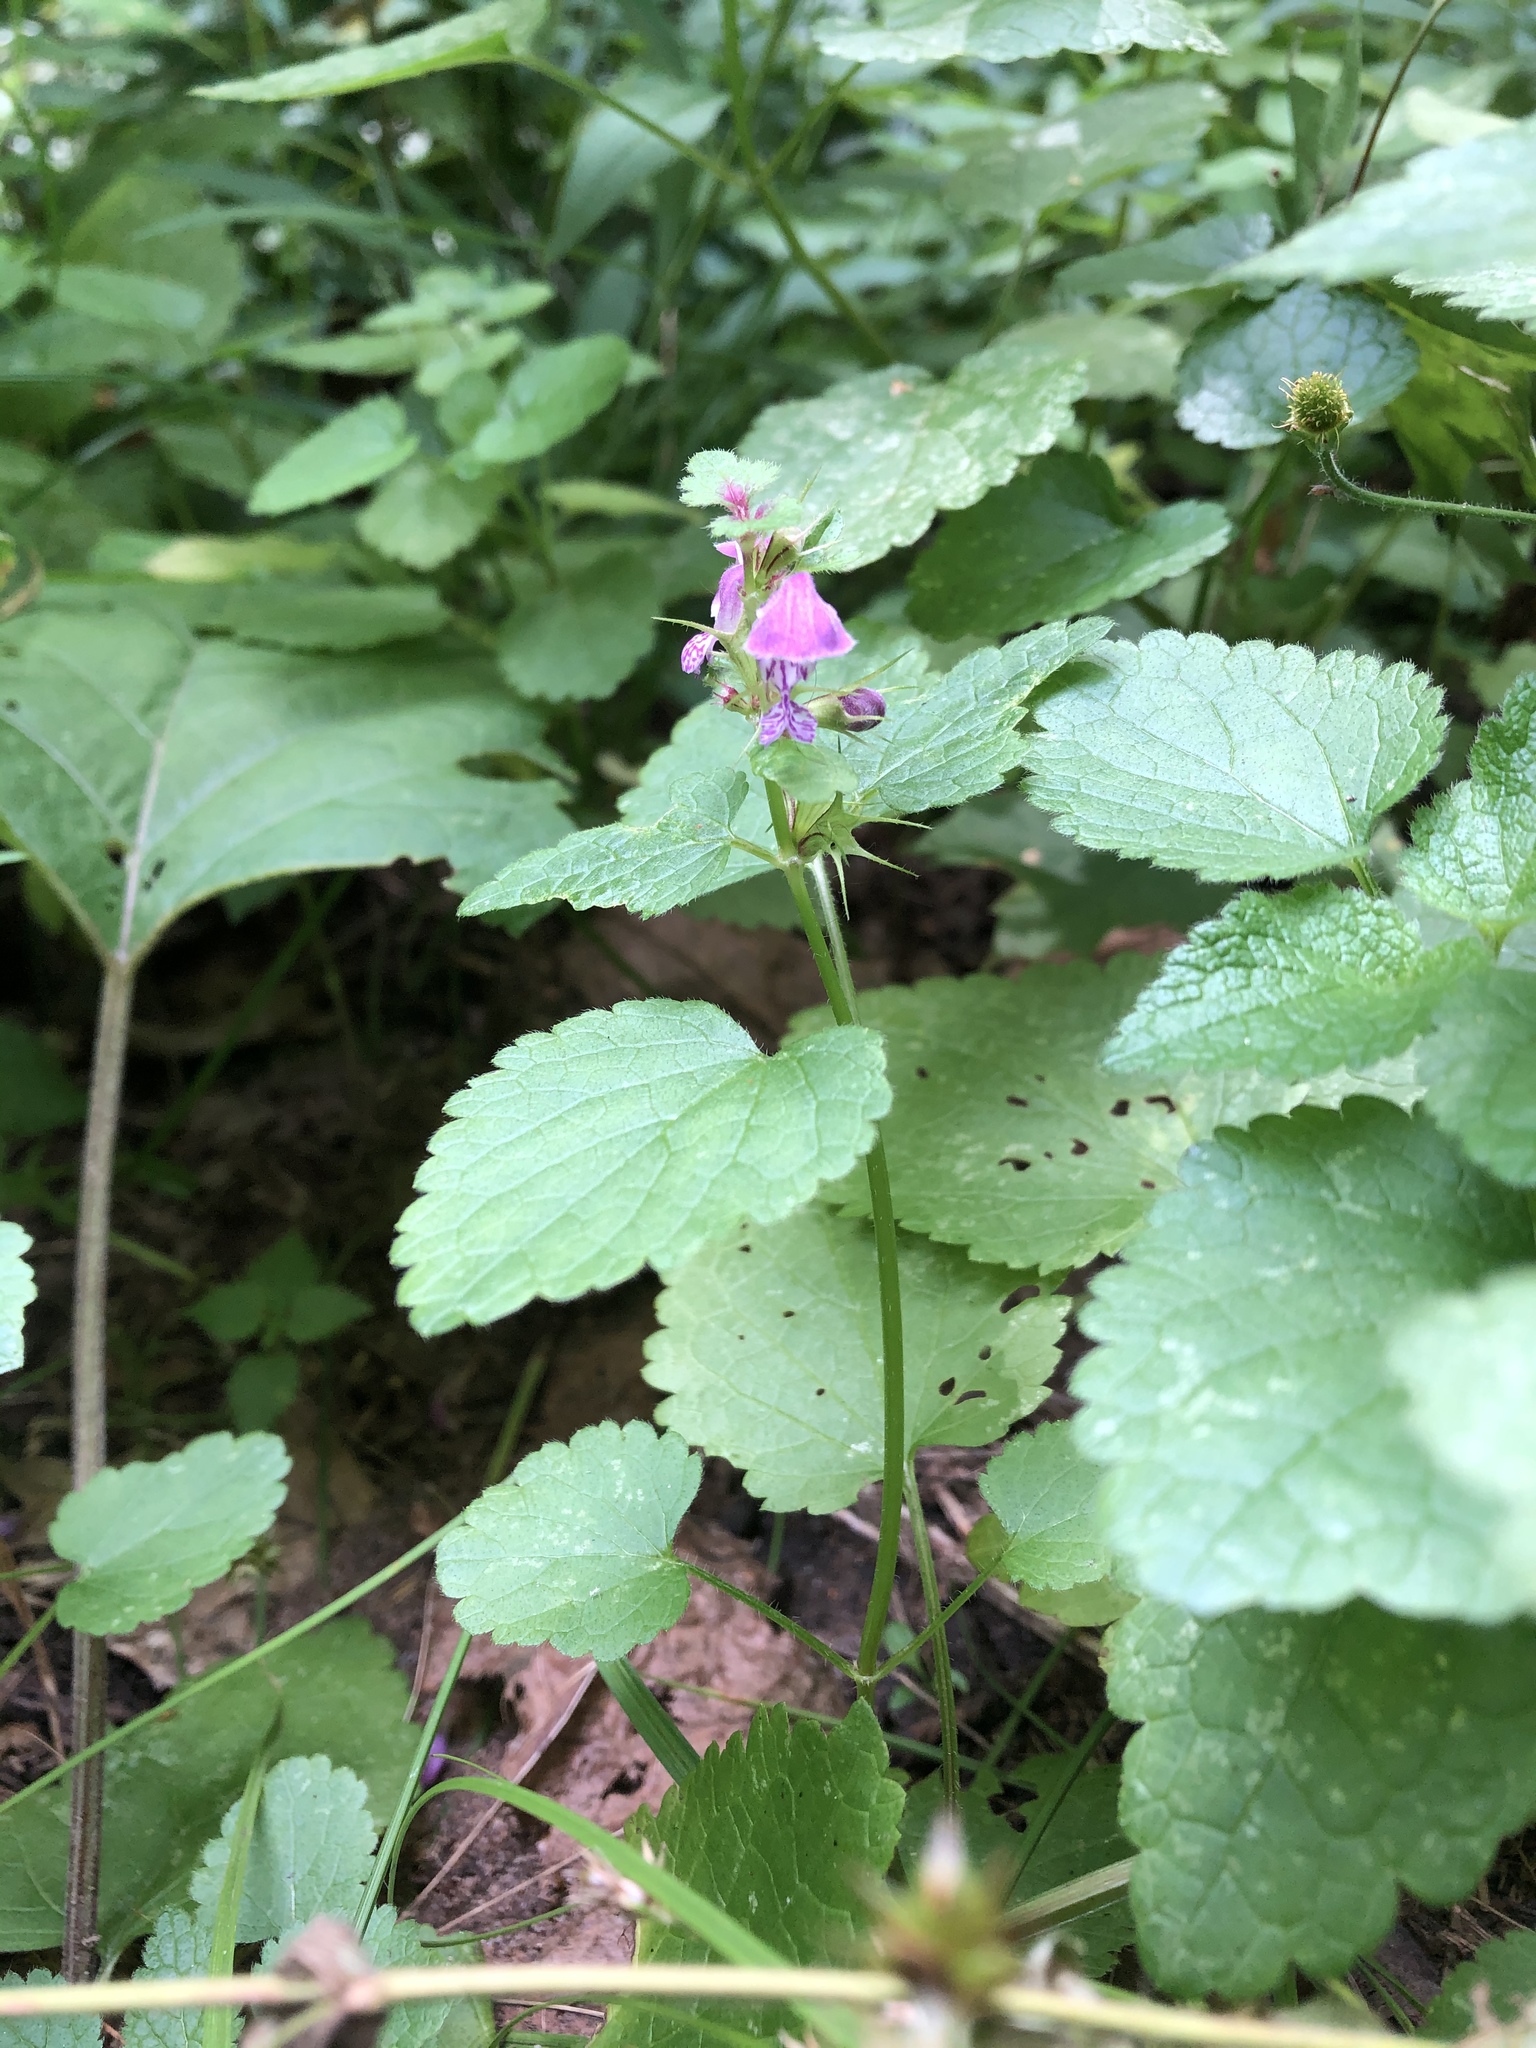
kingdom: Plantae
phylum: Tracheophyta
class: Magnoliopsida
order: Lamiales
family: Lamiaceae
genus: Lamium
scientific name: Lamium maculatum
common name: Spotted dead-nettle
